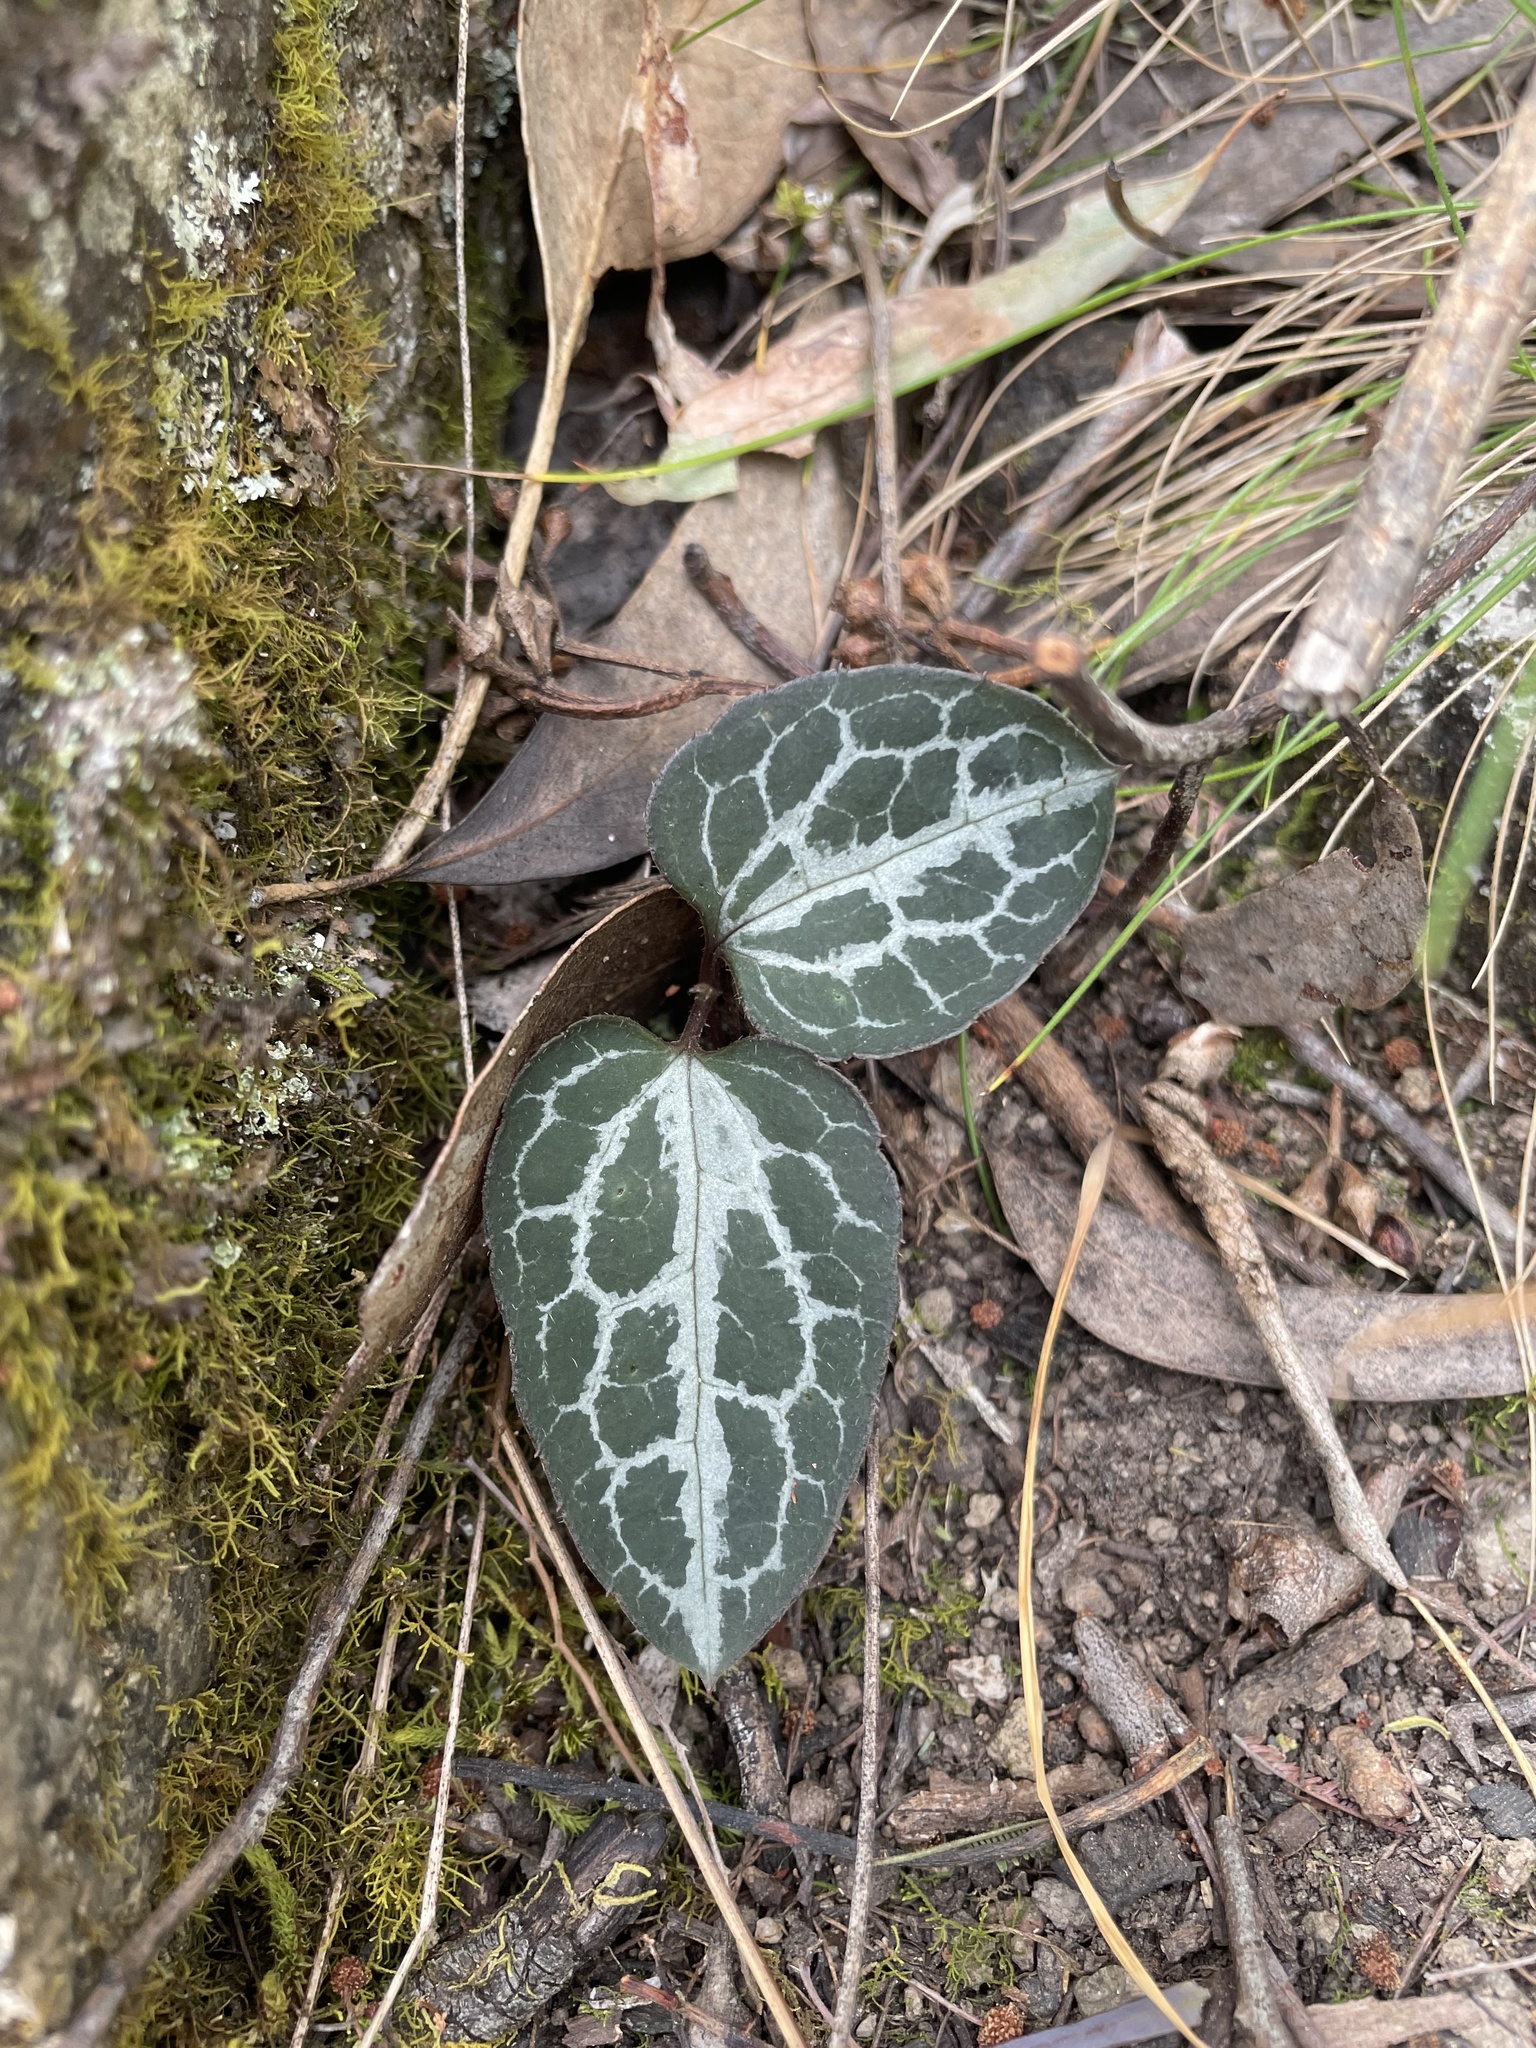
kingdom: Plantae
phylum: Tracheophyta
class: Magnoliopsida
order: Ranunculales
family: Ranunculaceae
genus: Clematis
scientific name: Clematis aristata
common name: Mountain clematis
